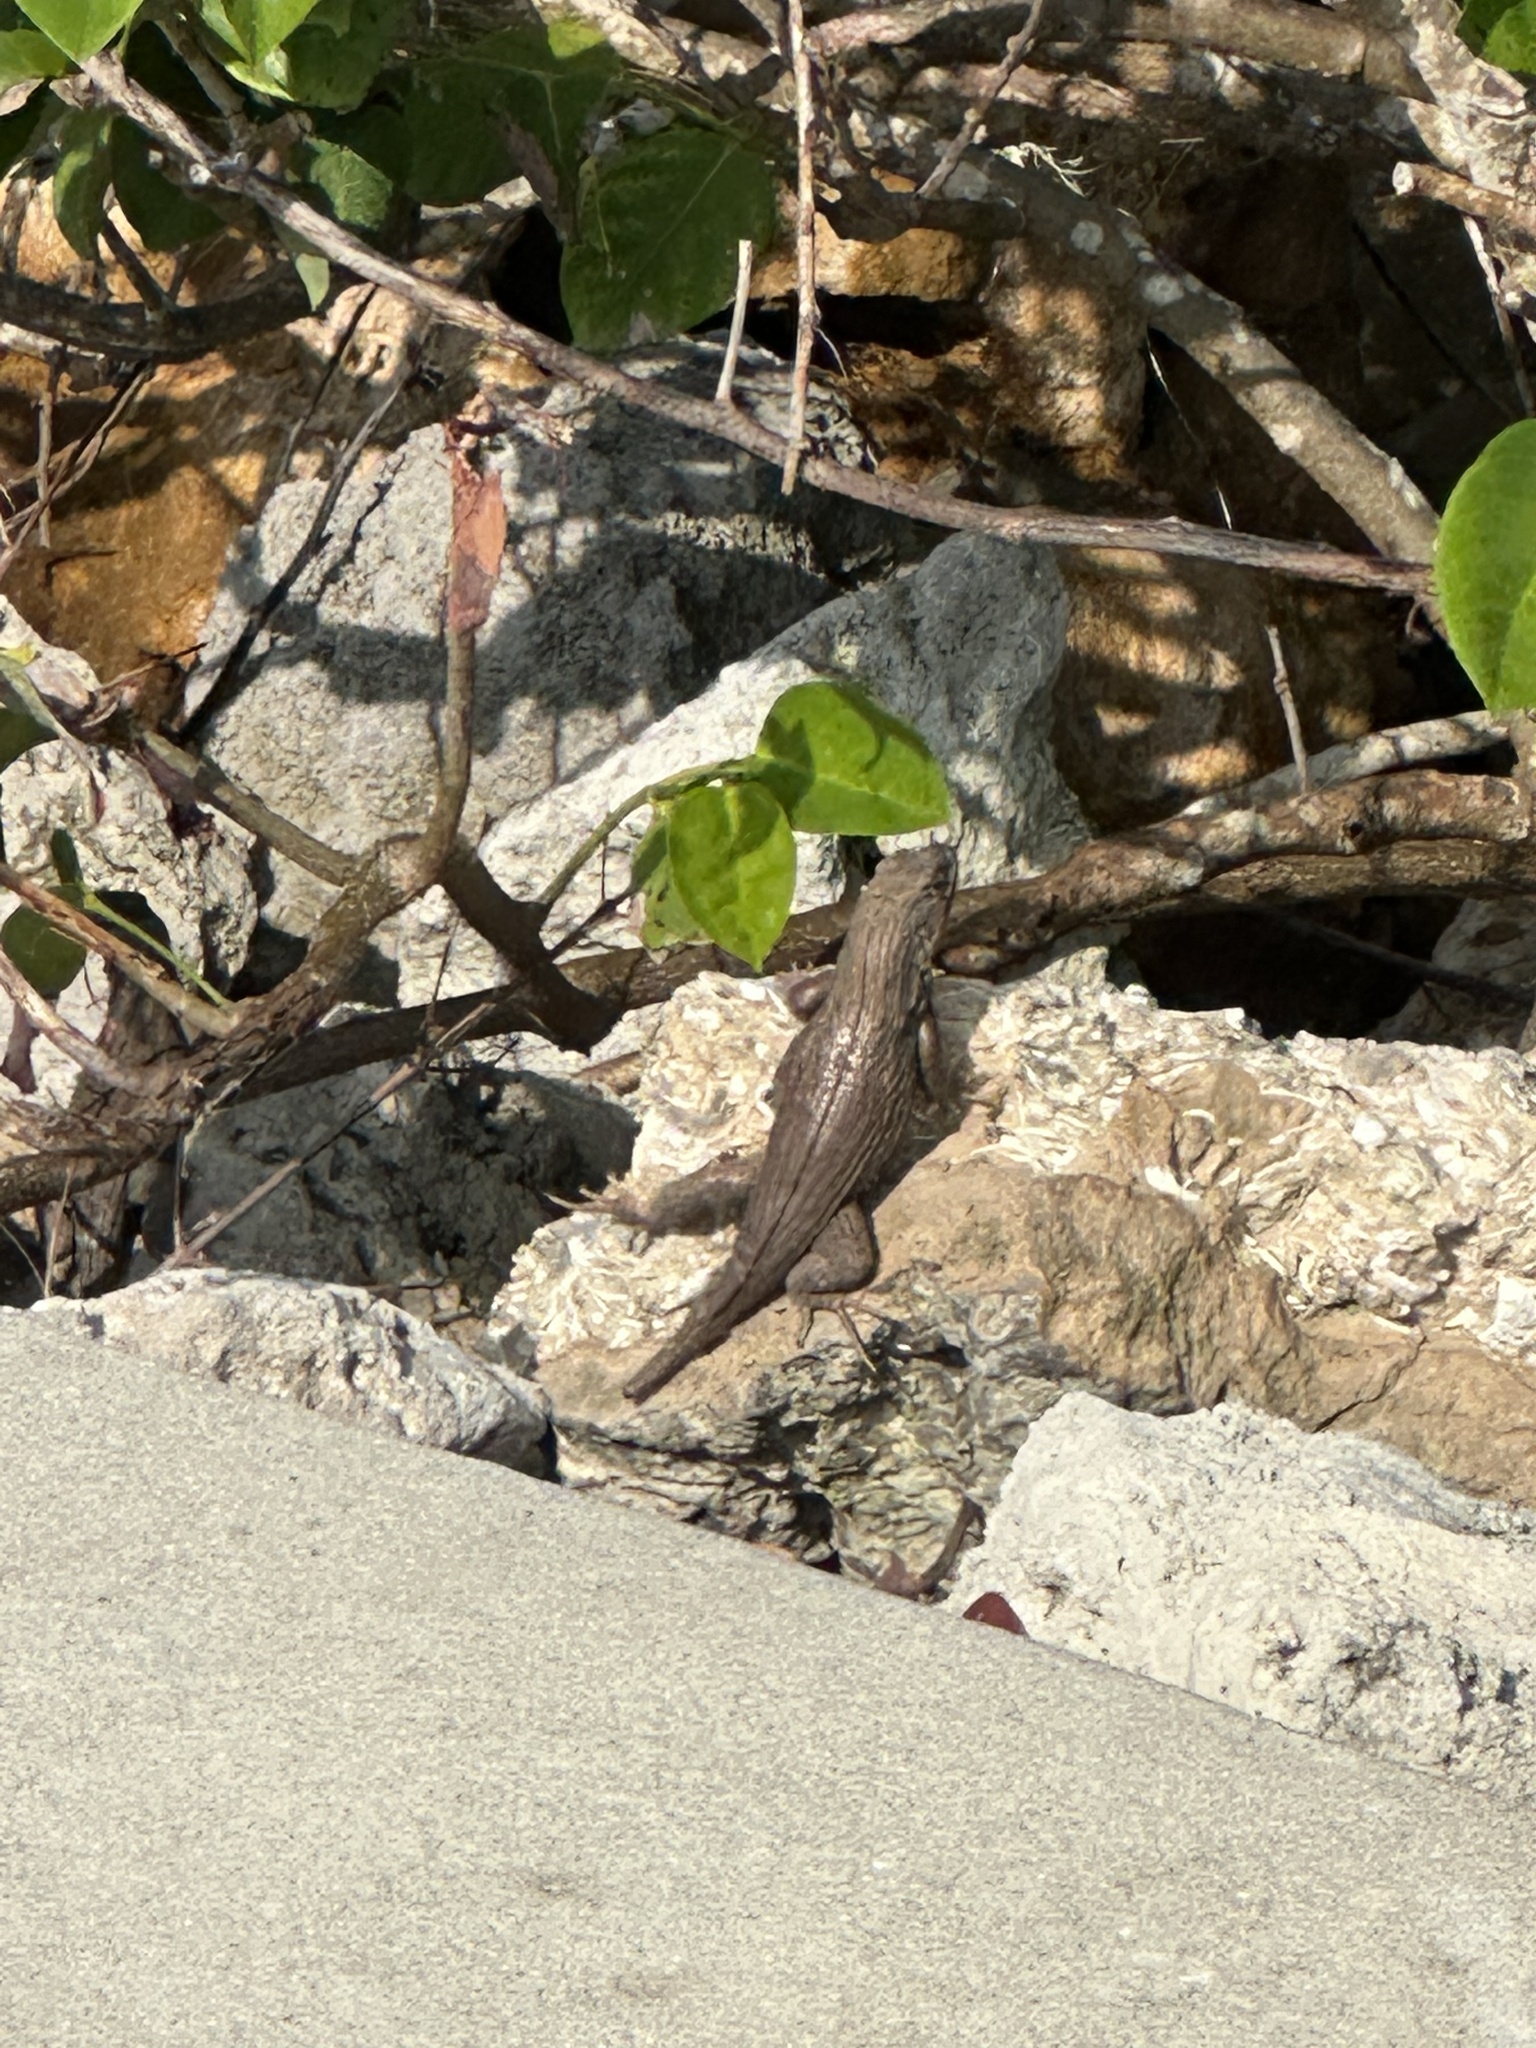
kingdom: Animalia
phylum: Chordata
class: Squamata
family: Leiocephalidae
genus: Leiocephalus
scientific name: Leiocephalus carinatus
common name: Northern curly-tailed lizard
